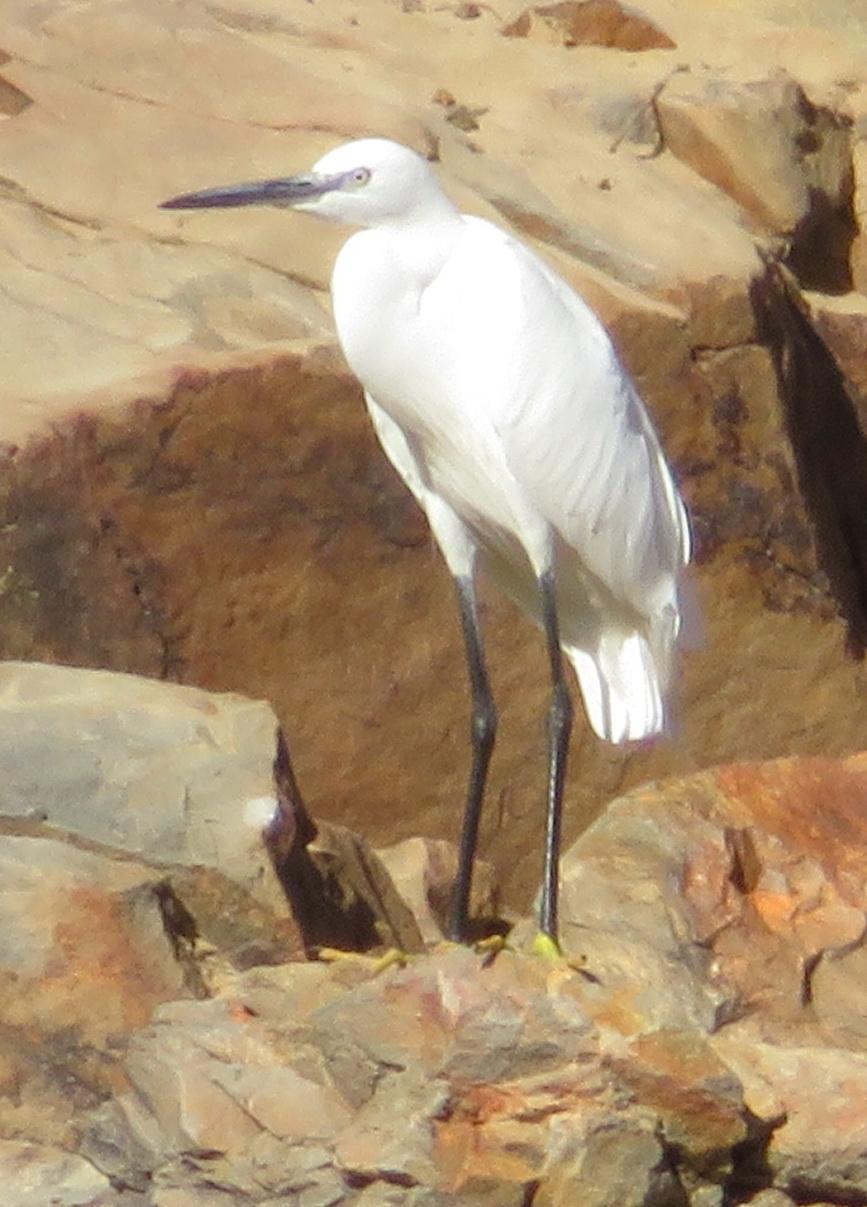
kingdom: Animalia
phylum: Chordata
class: Aves
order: Pelecaniformes
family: Ardeidae
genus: Egretta
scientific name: Egretta garzetta
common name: Little egret
